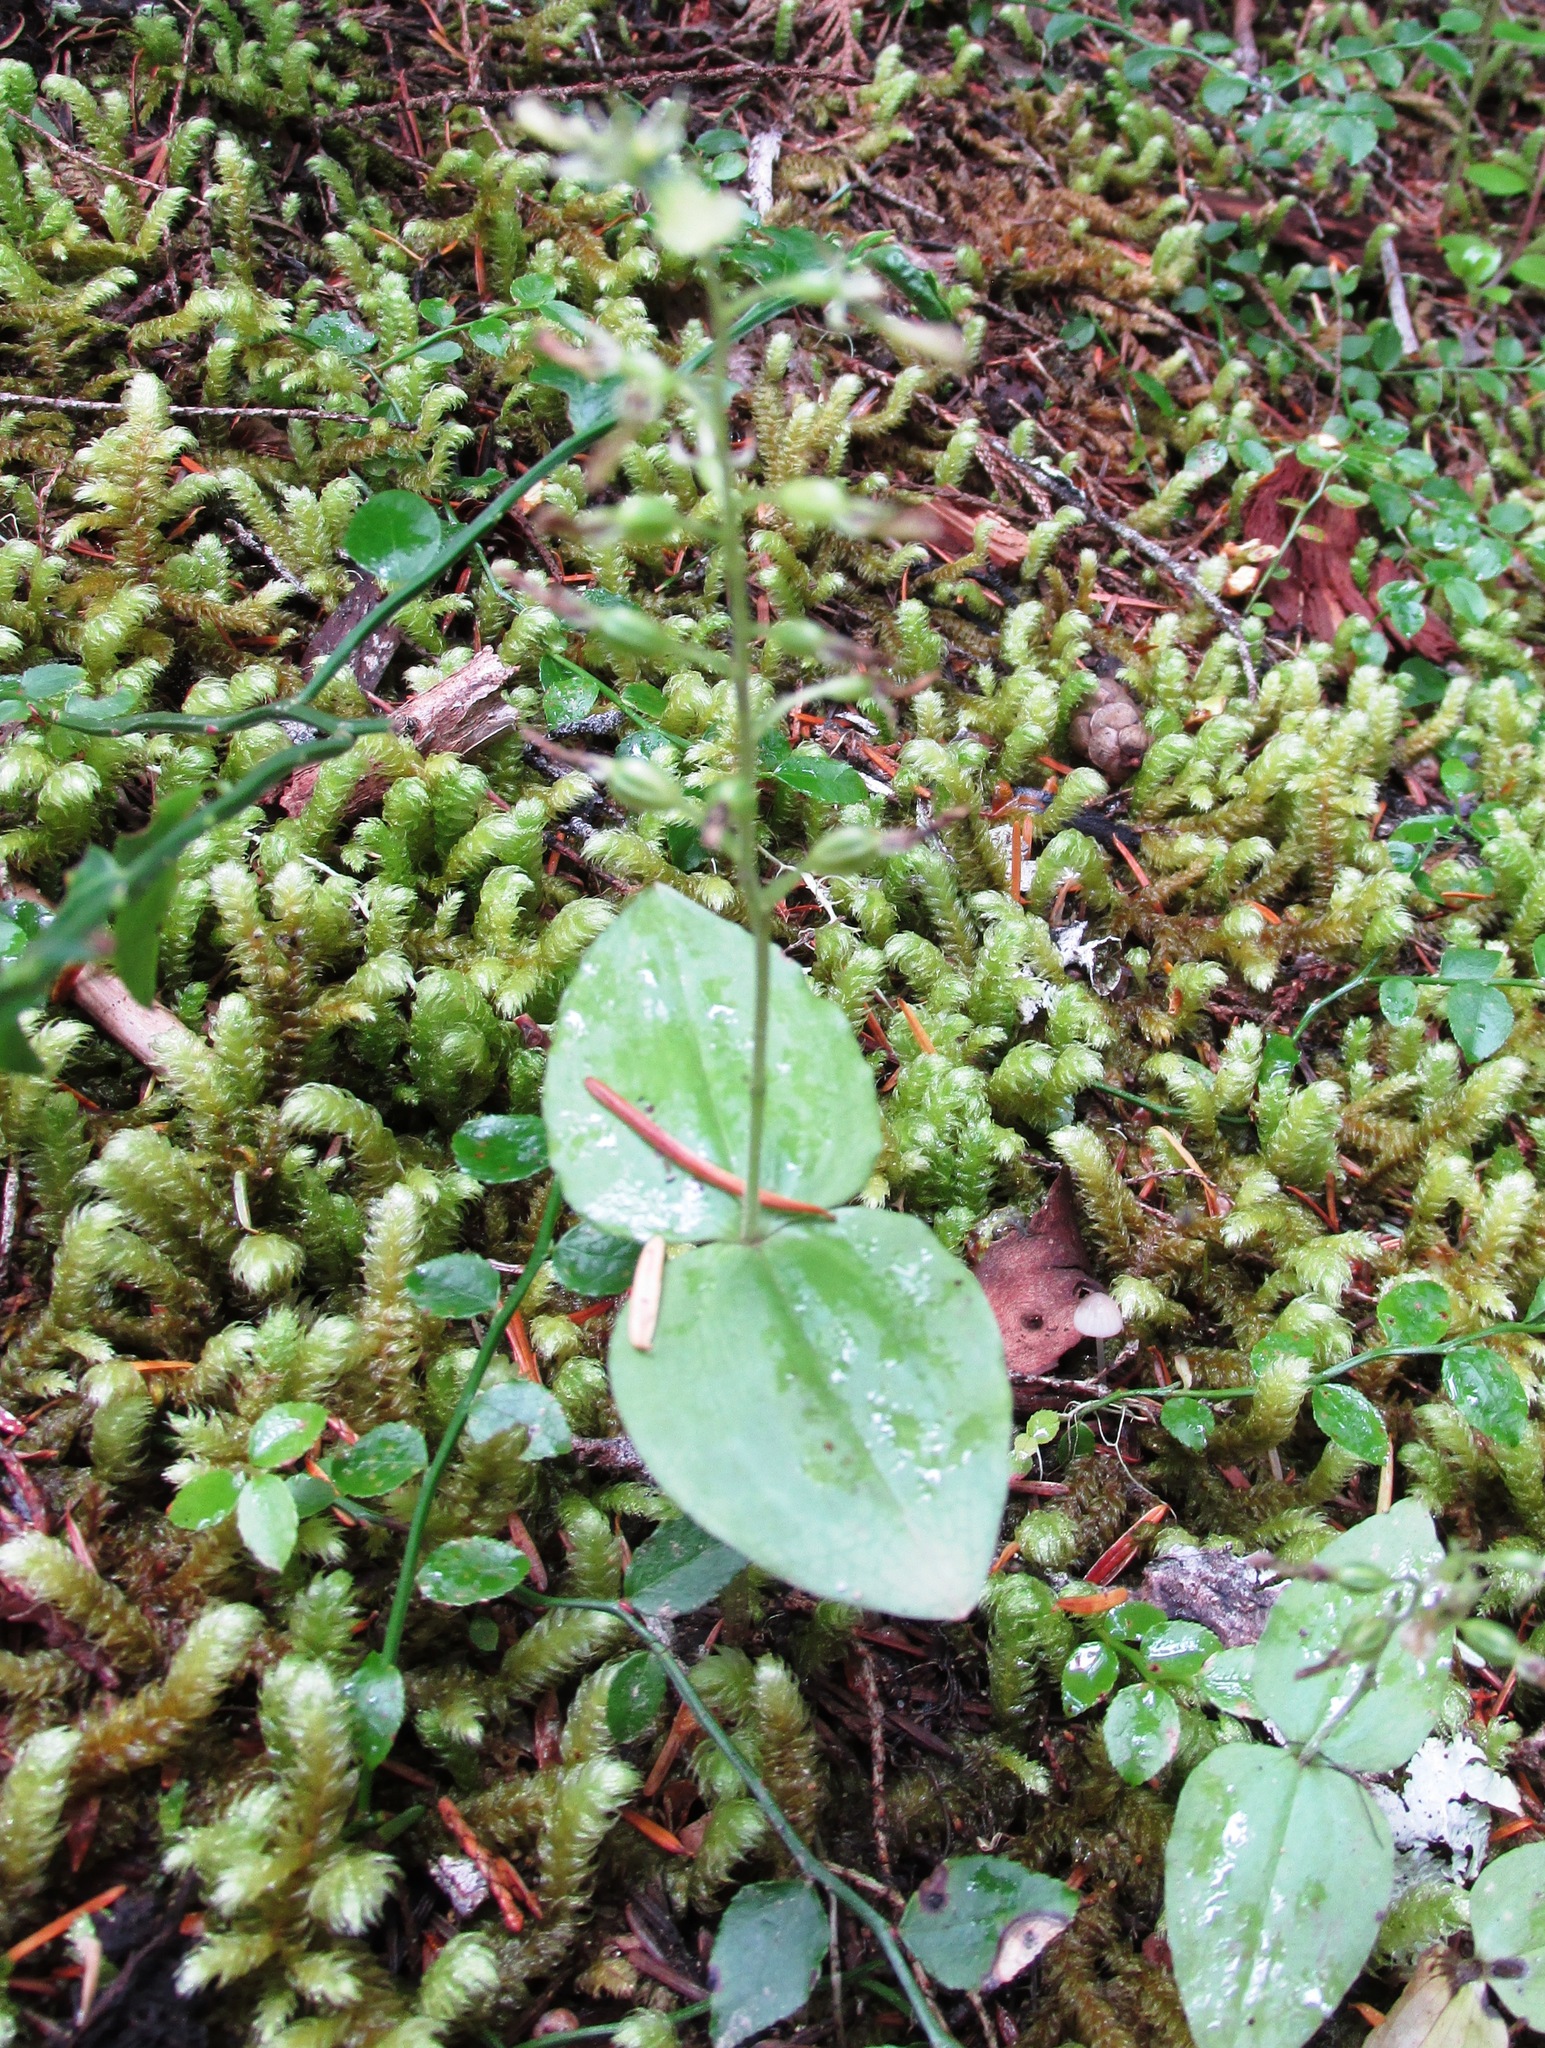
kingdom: Plantae
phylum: Tracheophyta
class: Liliopsida
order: Asparagales
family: Orchidaceae
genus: Neottia
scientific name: Neottia banksiana
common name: Northwestern twayblade
